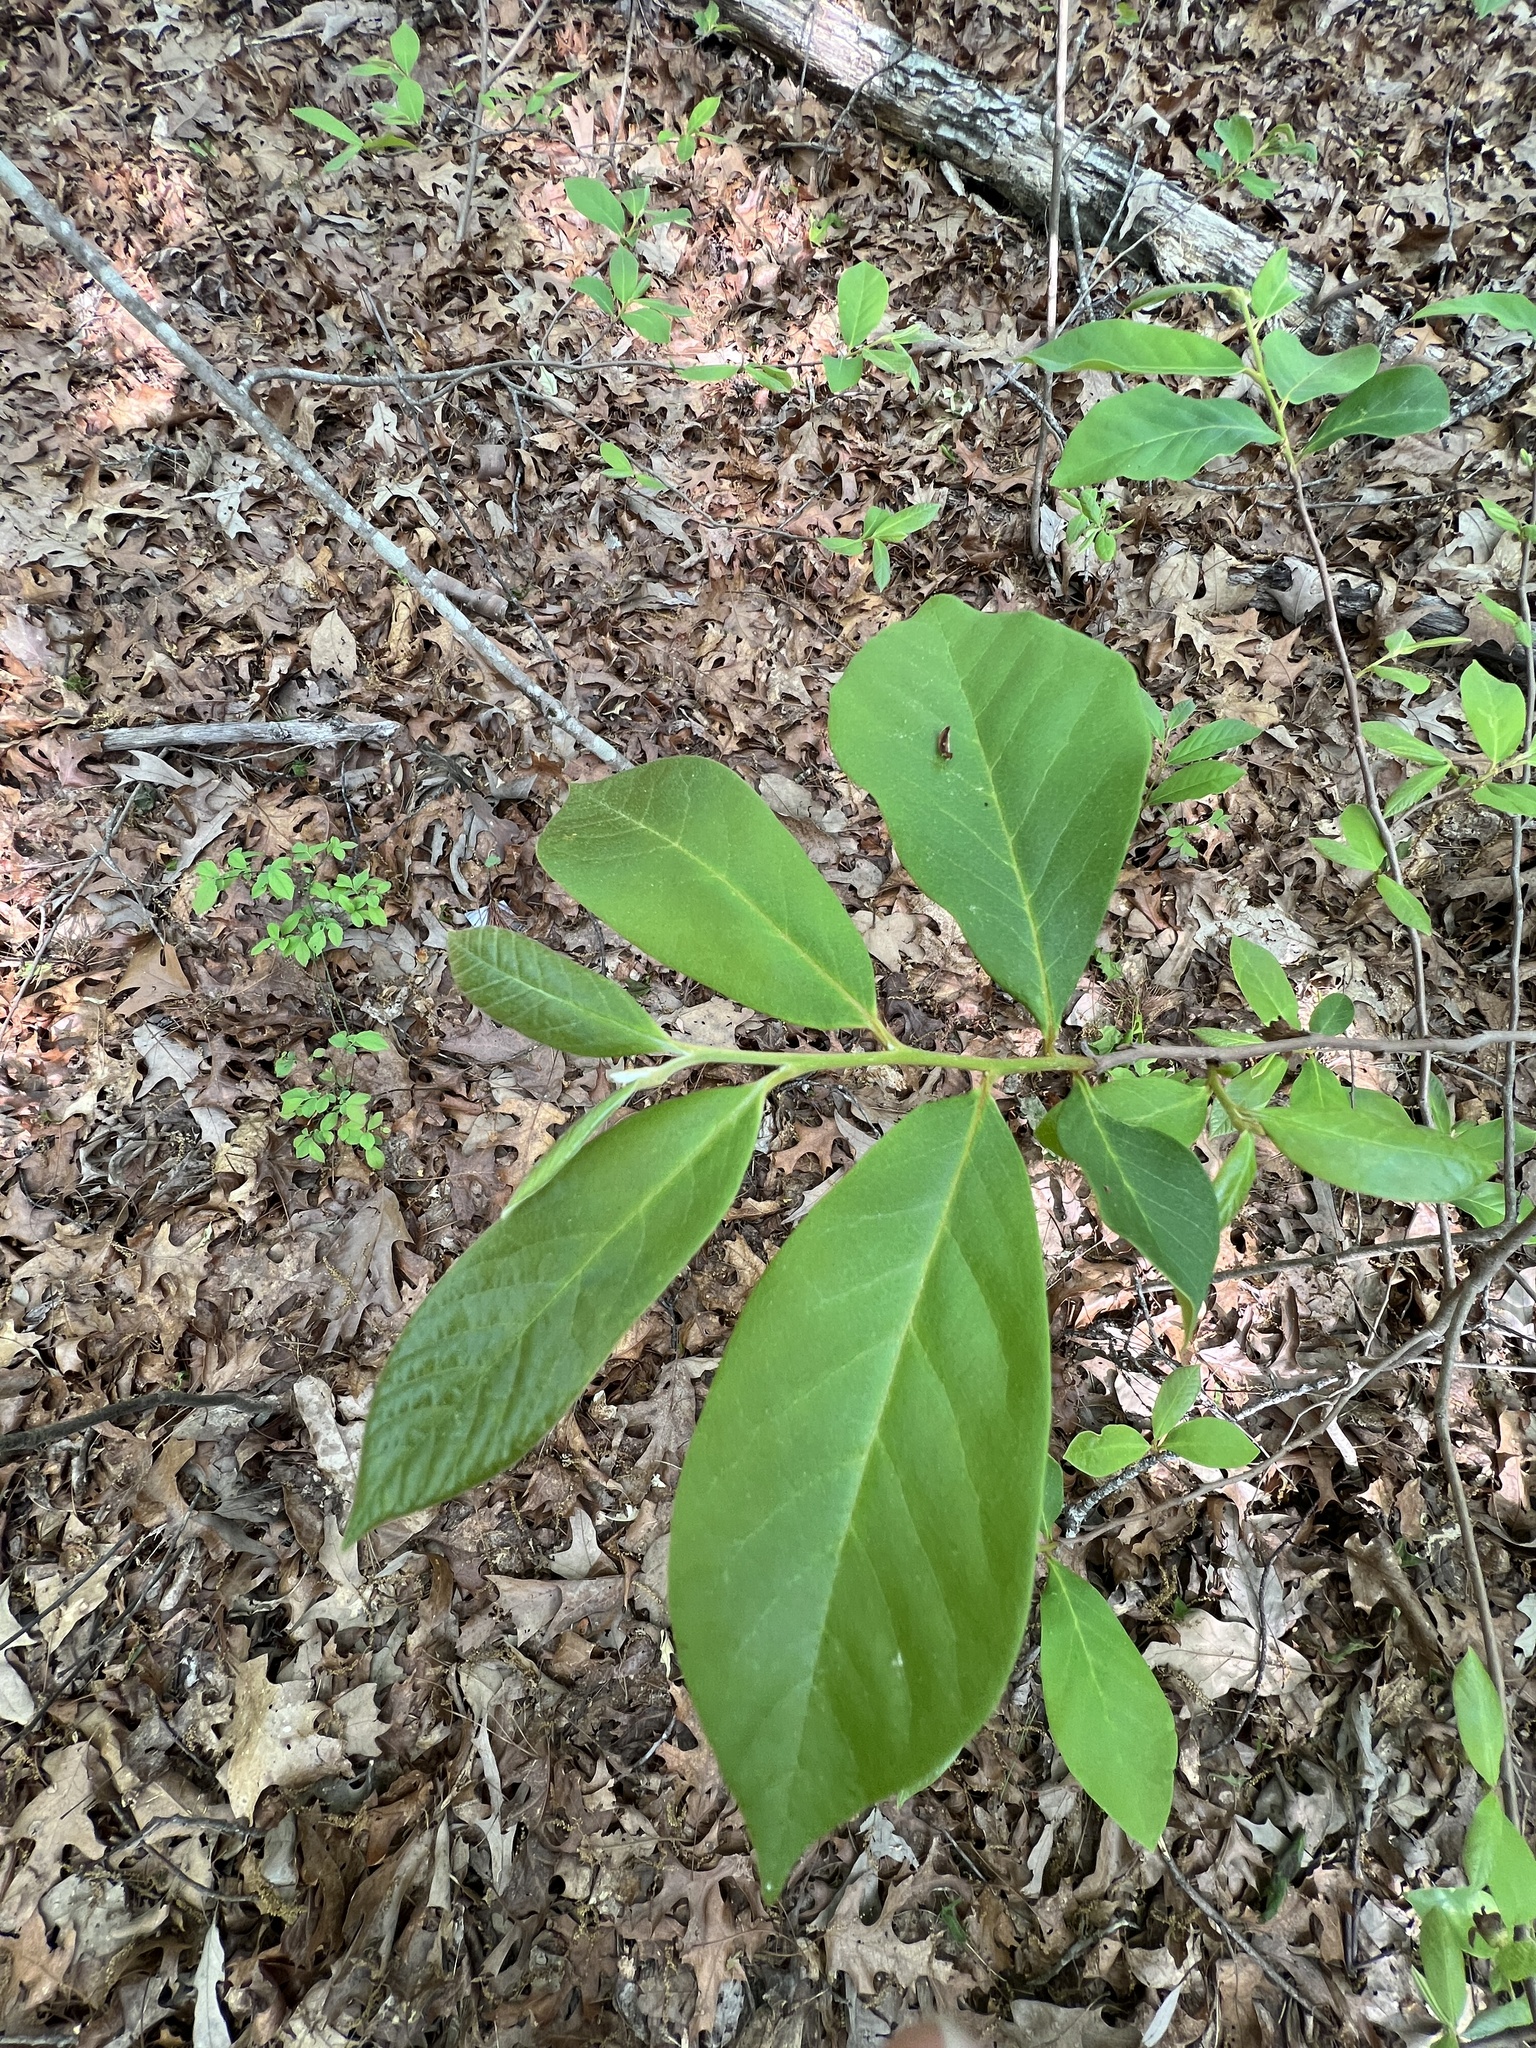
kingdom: Plantae
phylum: Tracheophyta
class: Magnoliopsida
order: Magnoliales
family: Annonaceae
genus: Asimina
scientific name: Asimina parviflora
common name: Dwarf pawpaw
